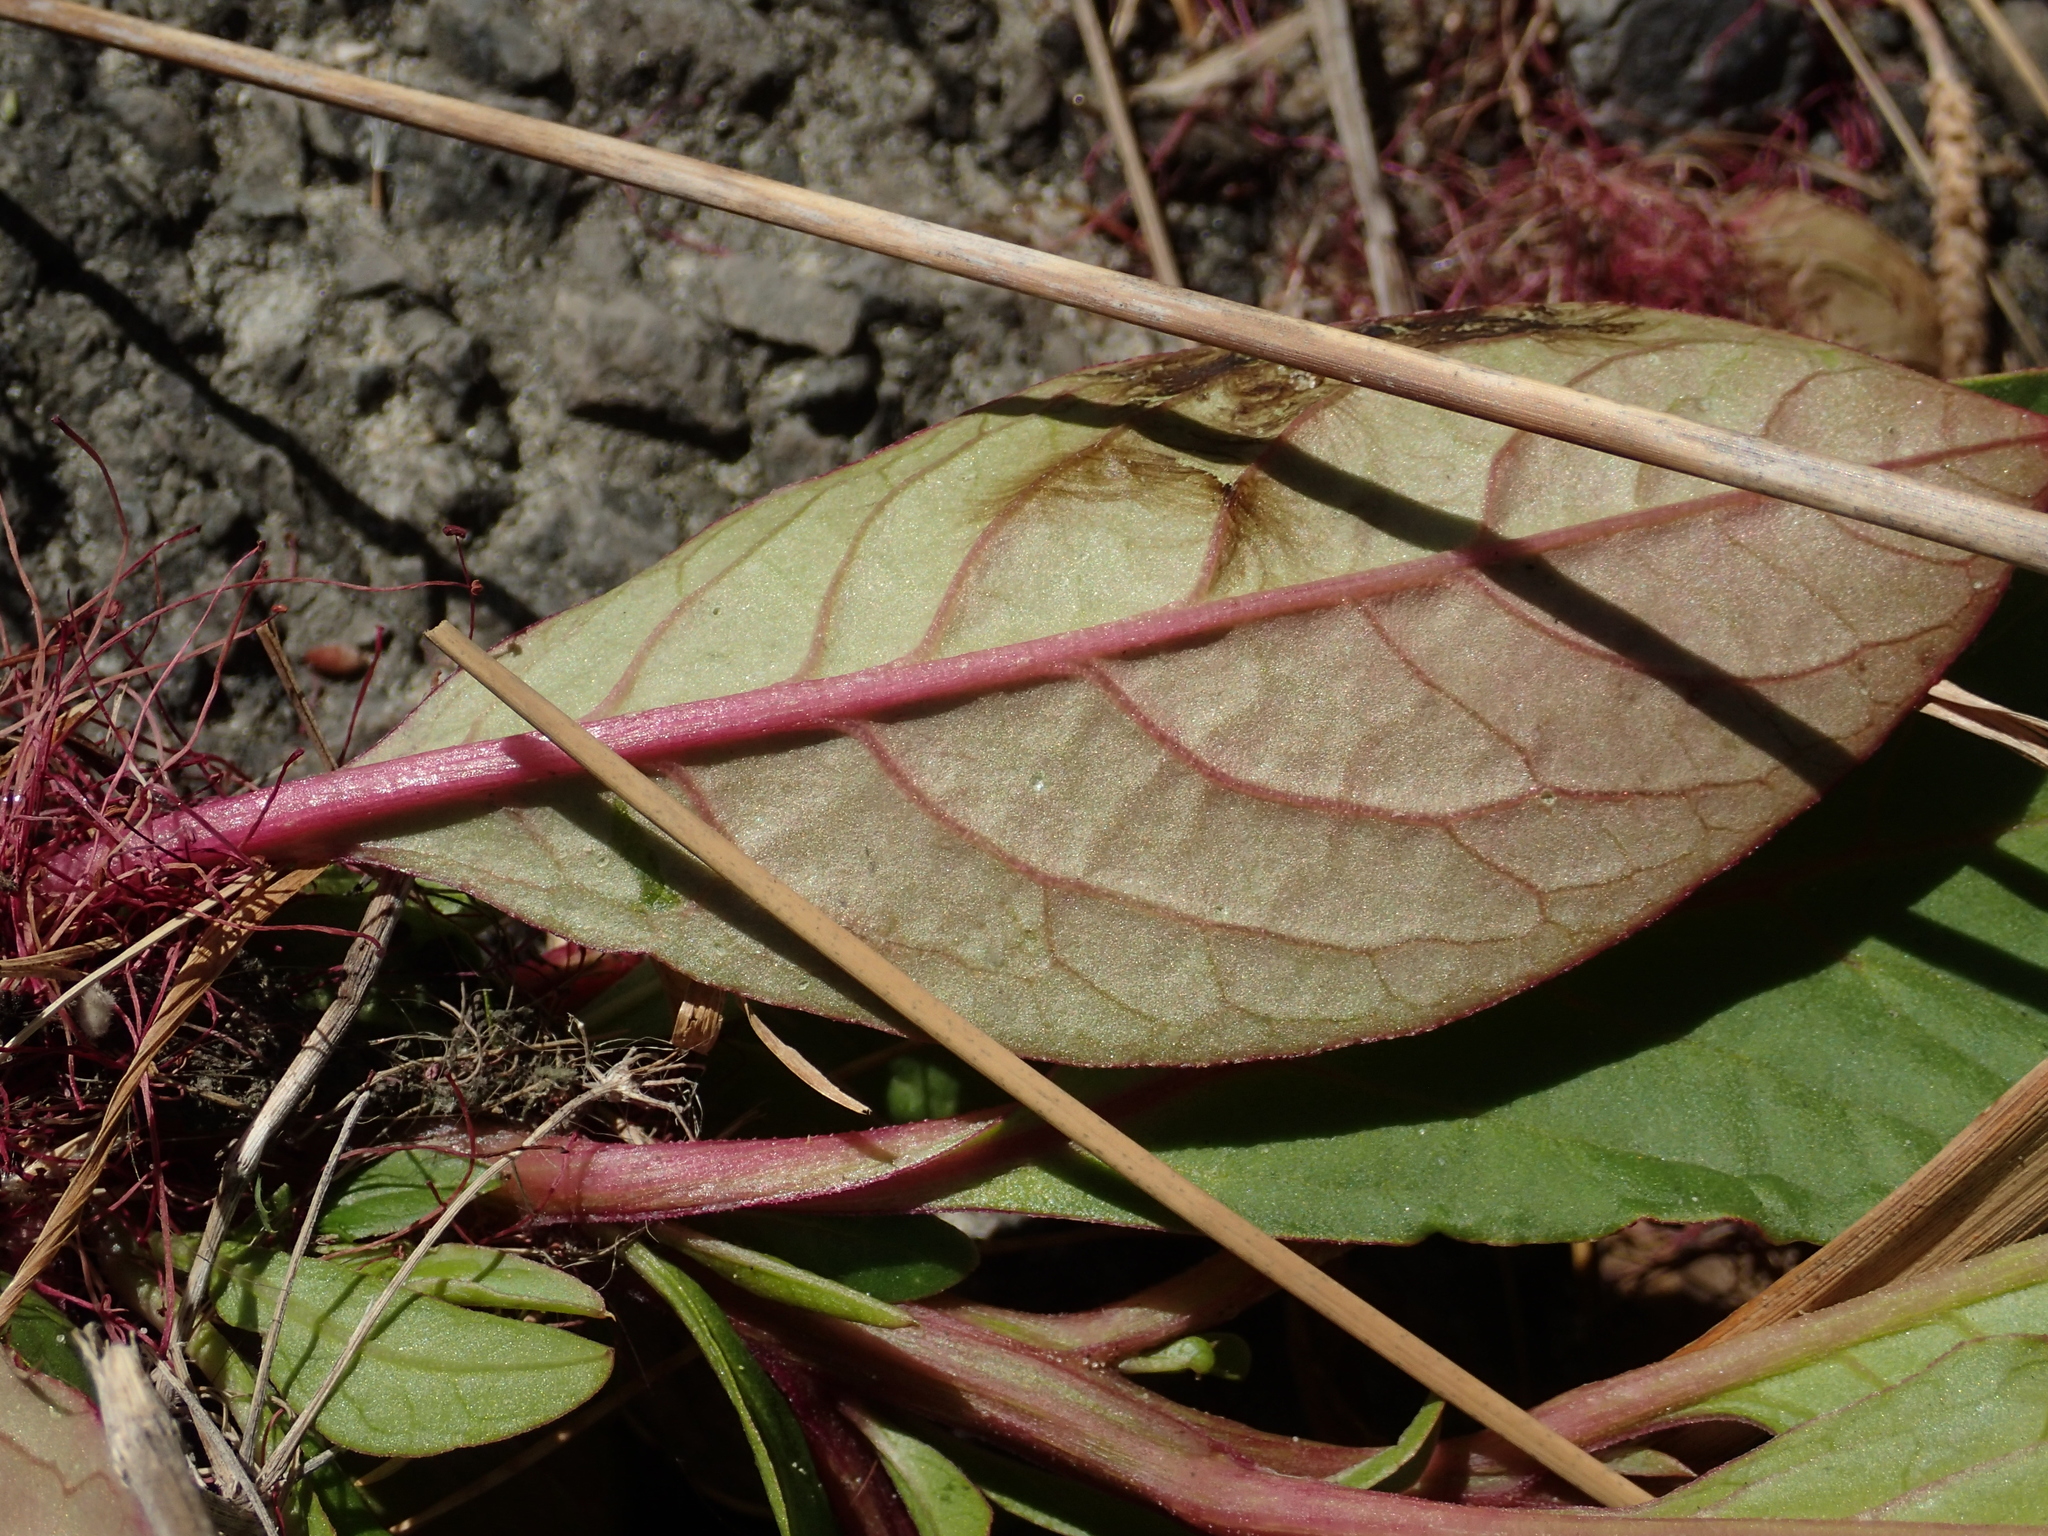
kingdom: Plantae
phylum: Tracheophyta
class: Magnoliopsida
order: Caryophyllales
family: Phytolaccaceae
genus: Phytolacca
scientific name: Phytolacca icosandra
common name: Button pokeweed
